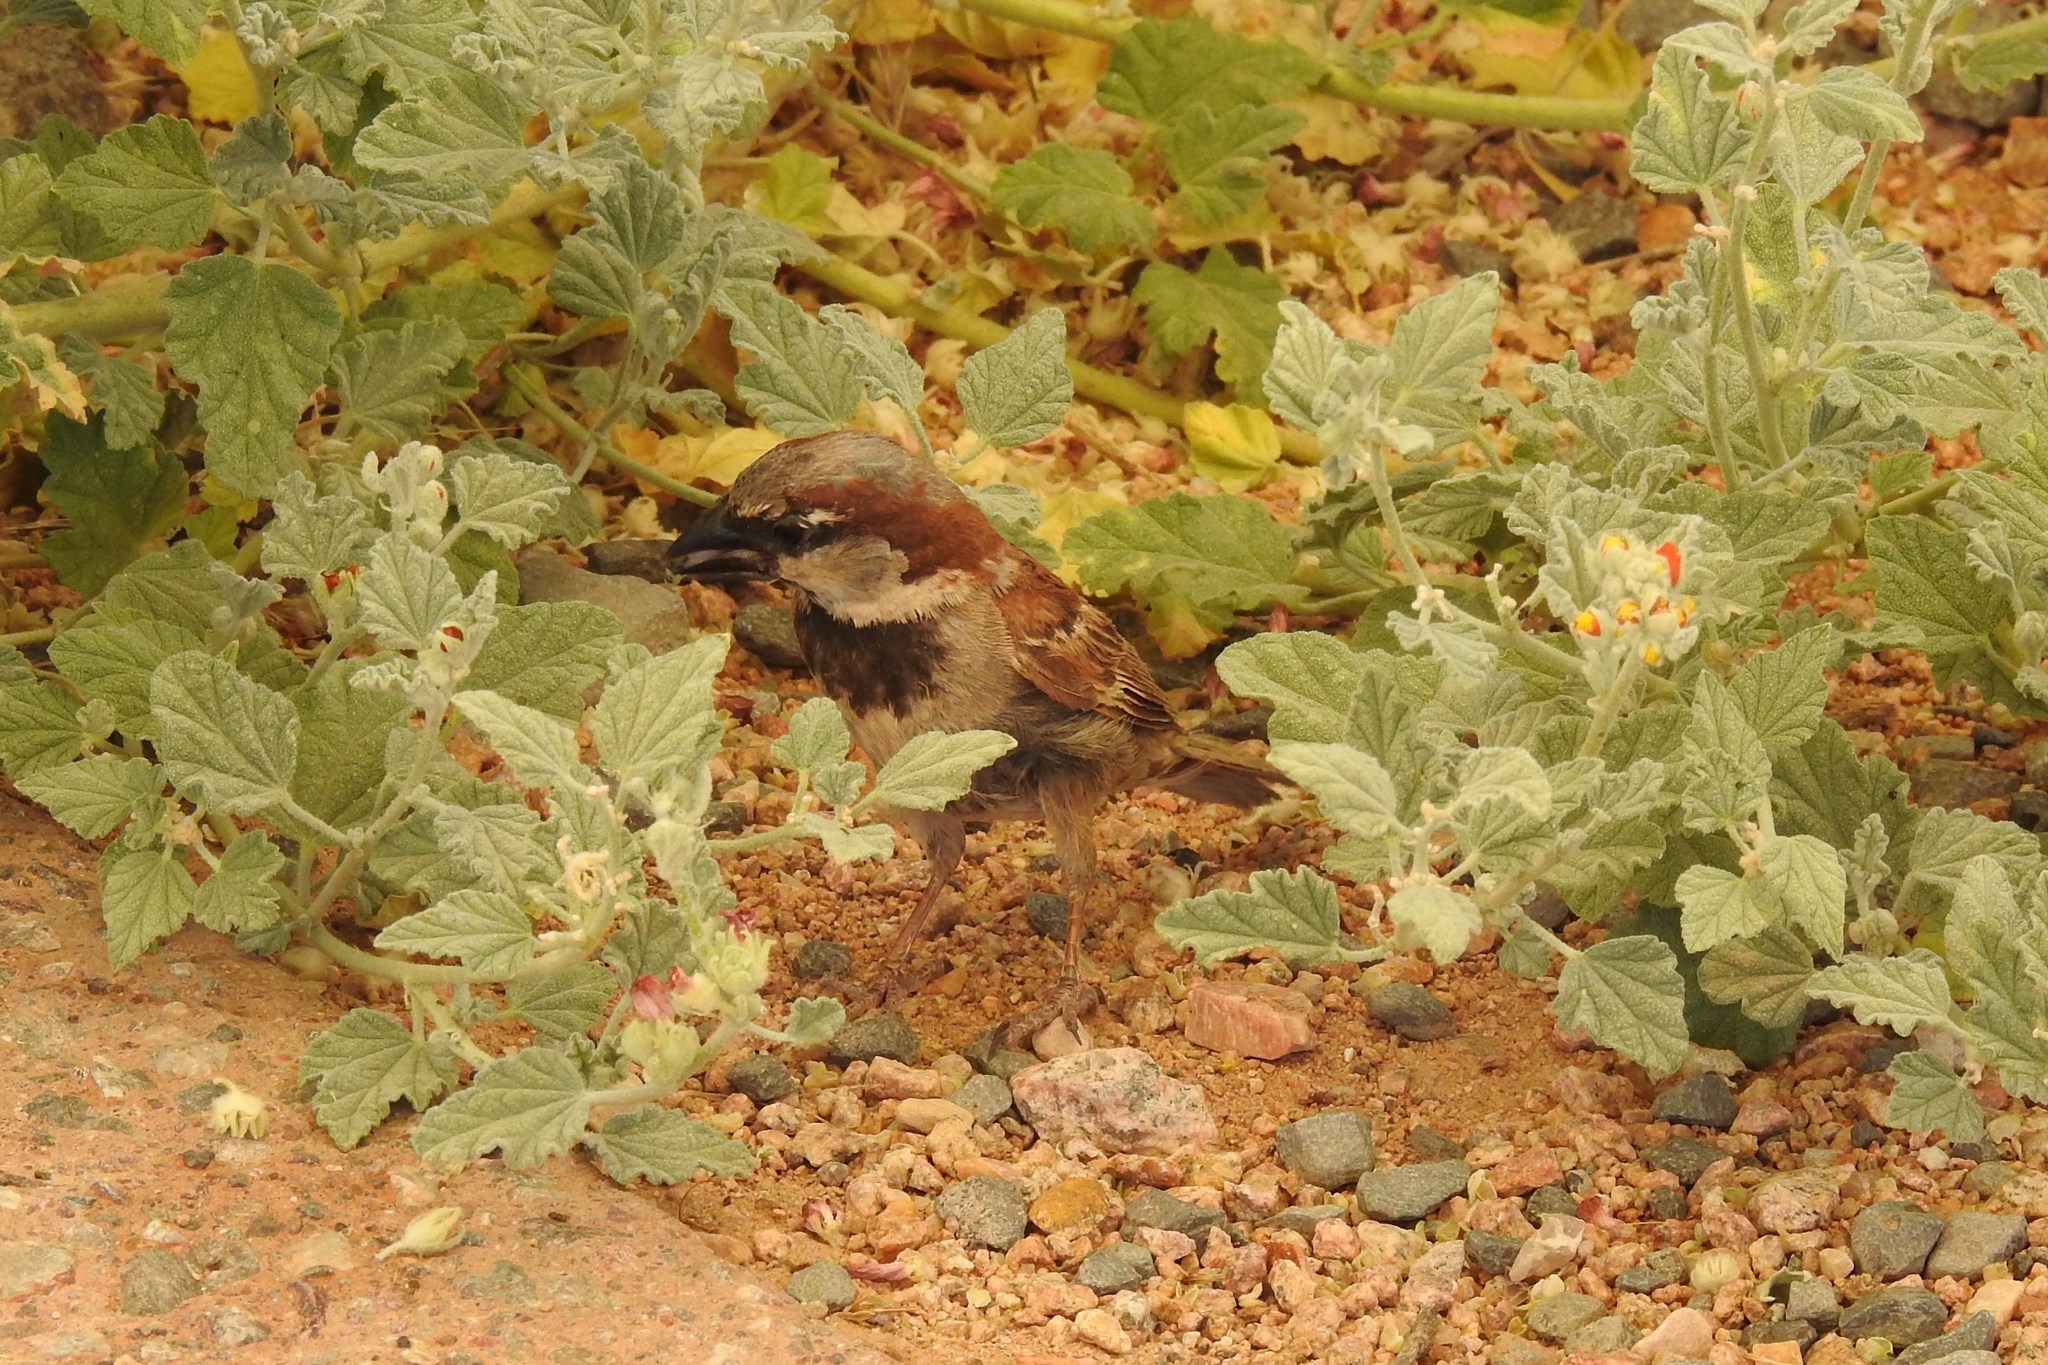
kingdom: Animalia
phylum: Chordata
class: Aves
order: Passeriformes
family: Passeridae
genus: Passer
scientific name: Passer domesticus
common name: House sparrow
